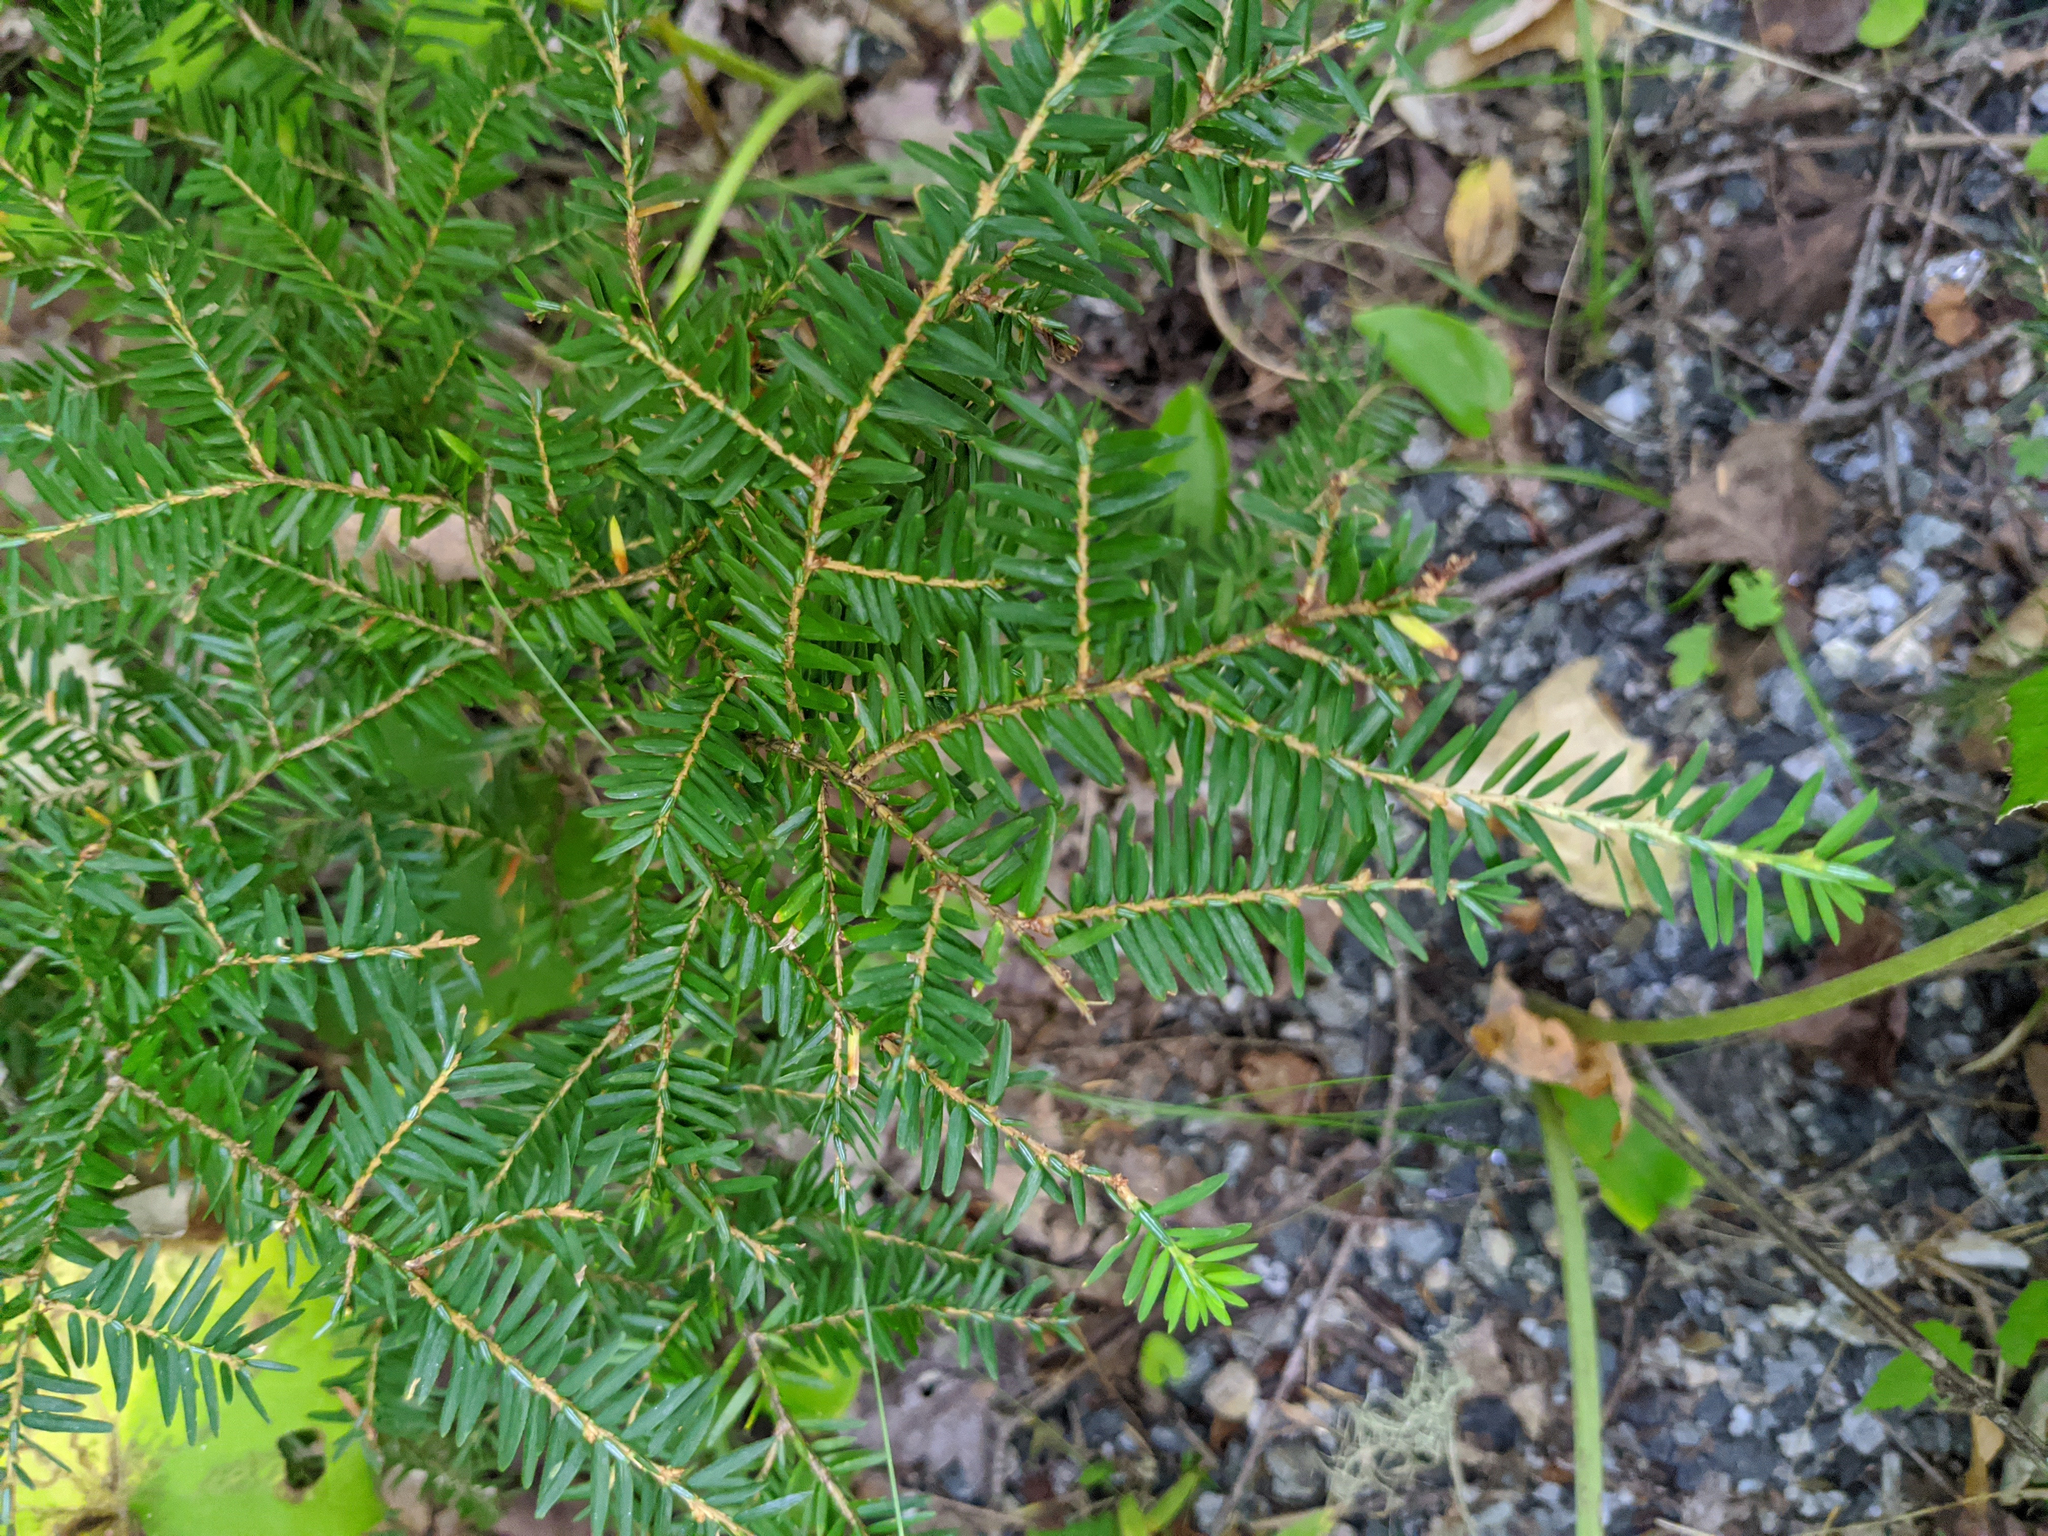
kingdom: Plantae
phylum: Tracheophyta
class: Pinopsida
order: Pinales
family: Pinaceae
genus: Tsuga
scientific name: Tsuga canadensis
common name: Eastern hemlock
